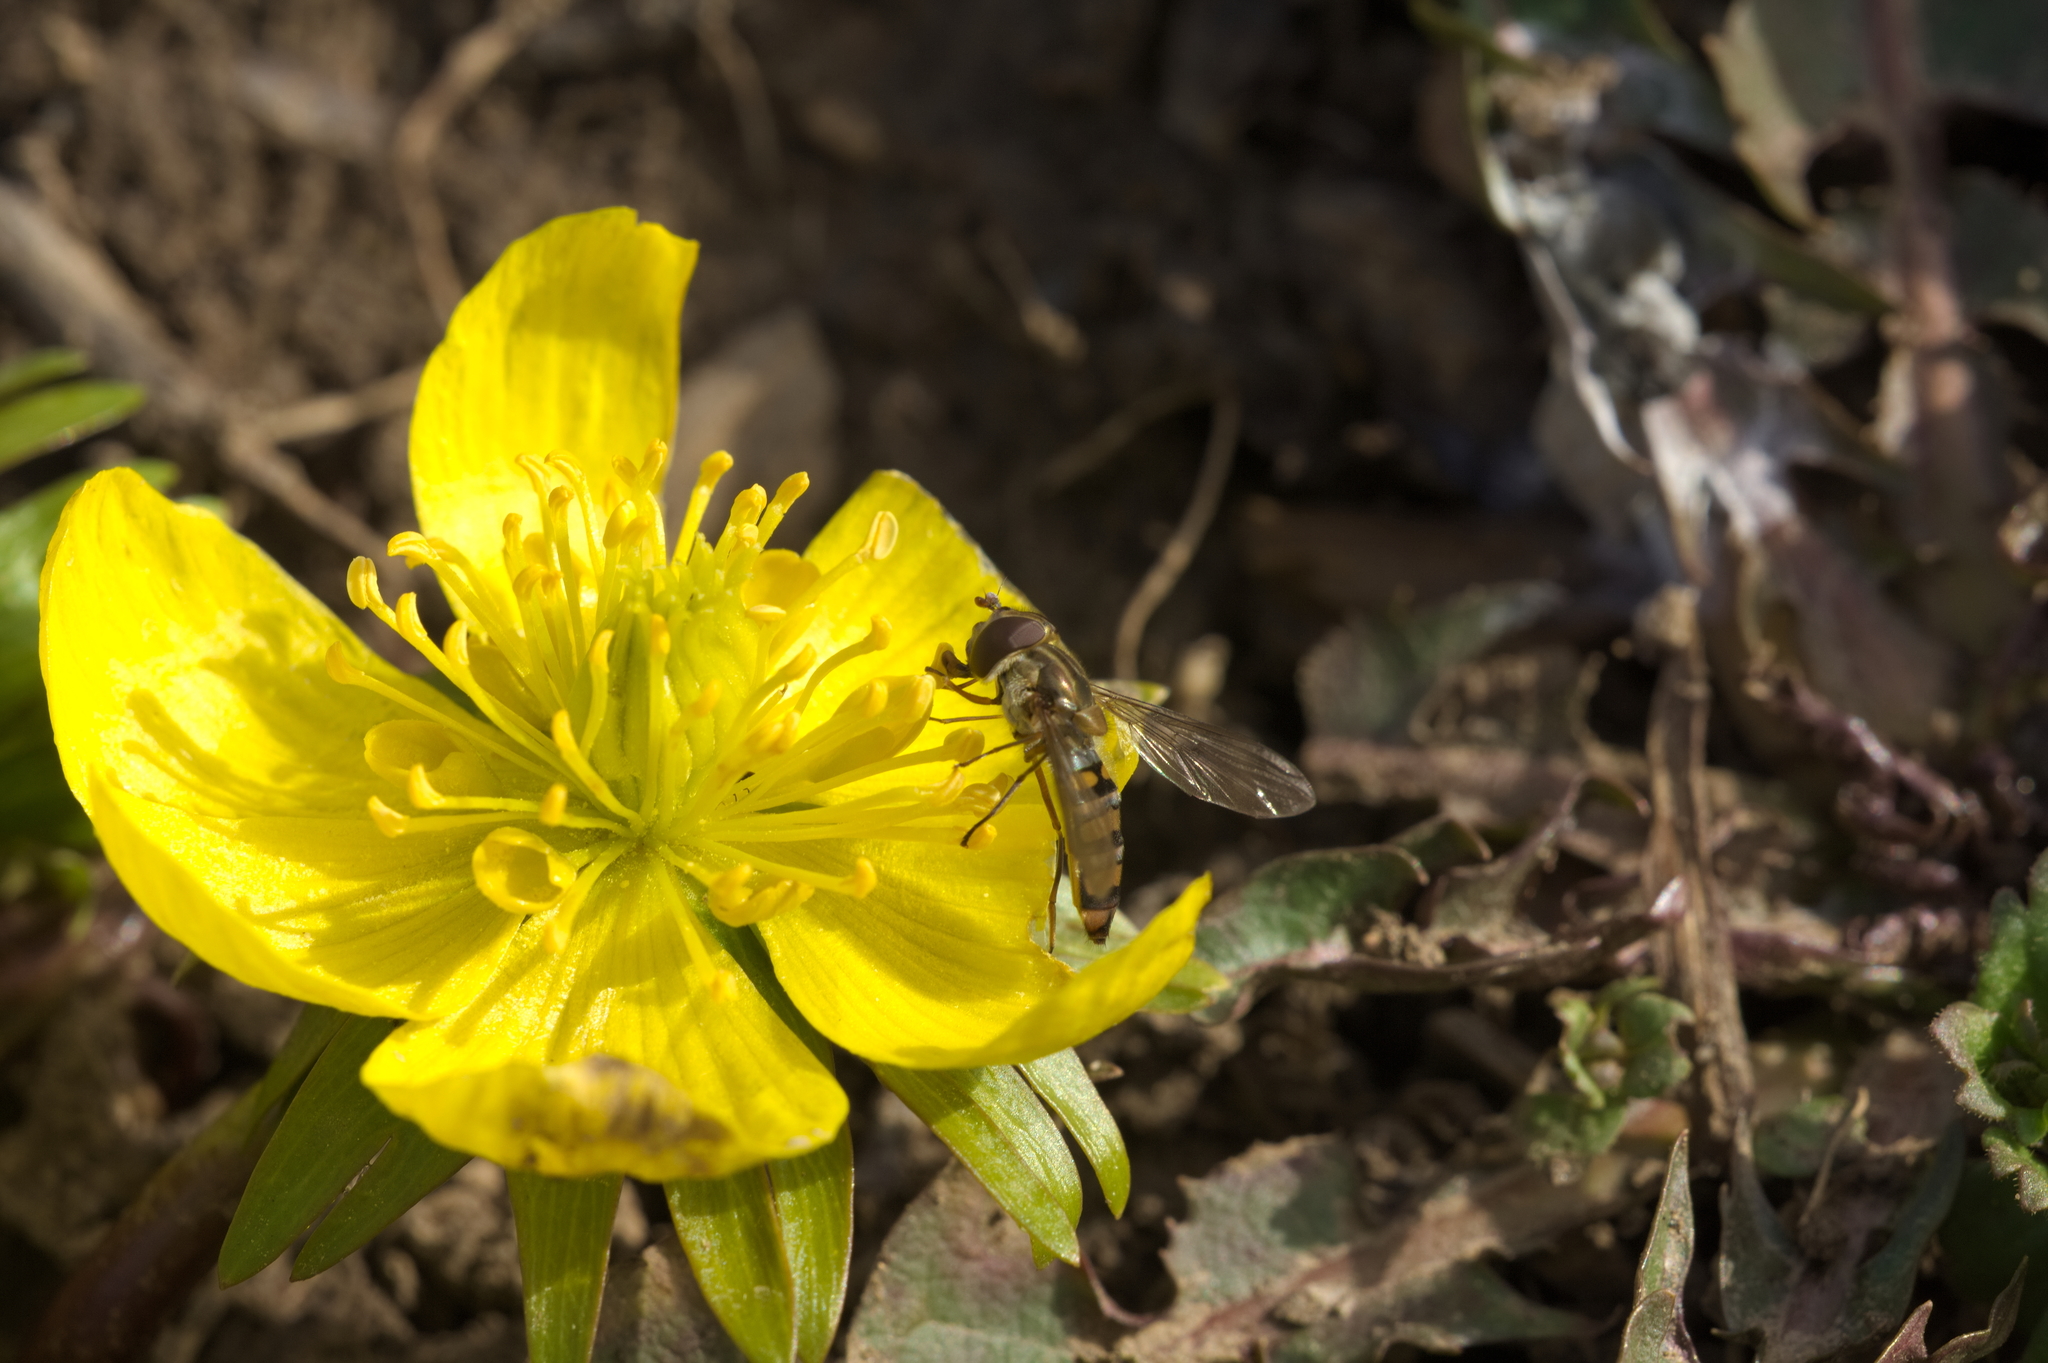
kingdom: Animalia
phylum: Arthropoda
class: Insecta
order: Diptera
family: Syrphidae
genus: Episyrphus
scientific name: Episyrphus balteatus
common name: Marmalade hoverfly
